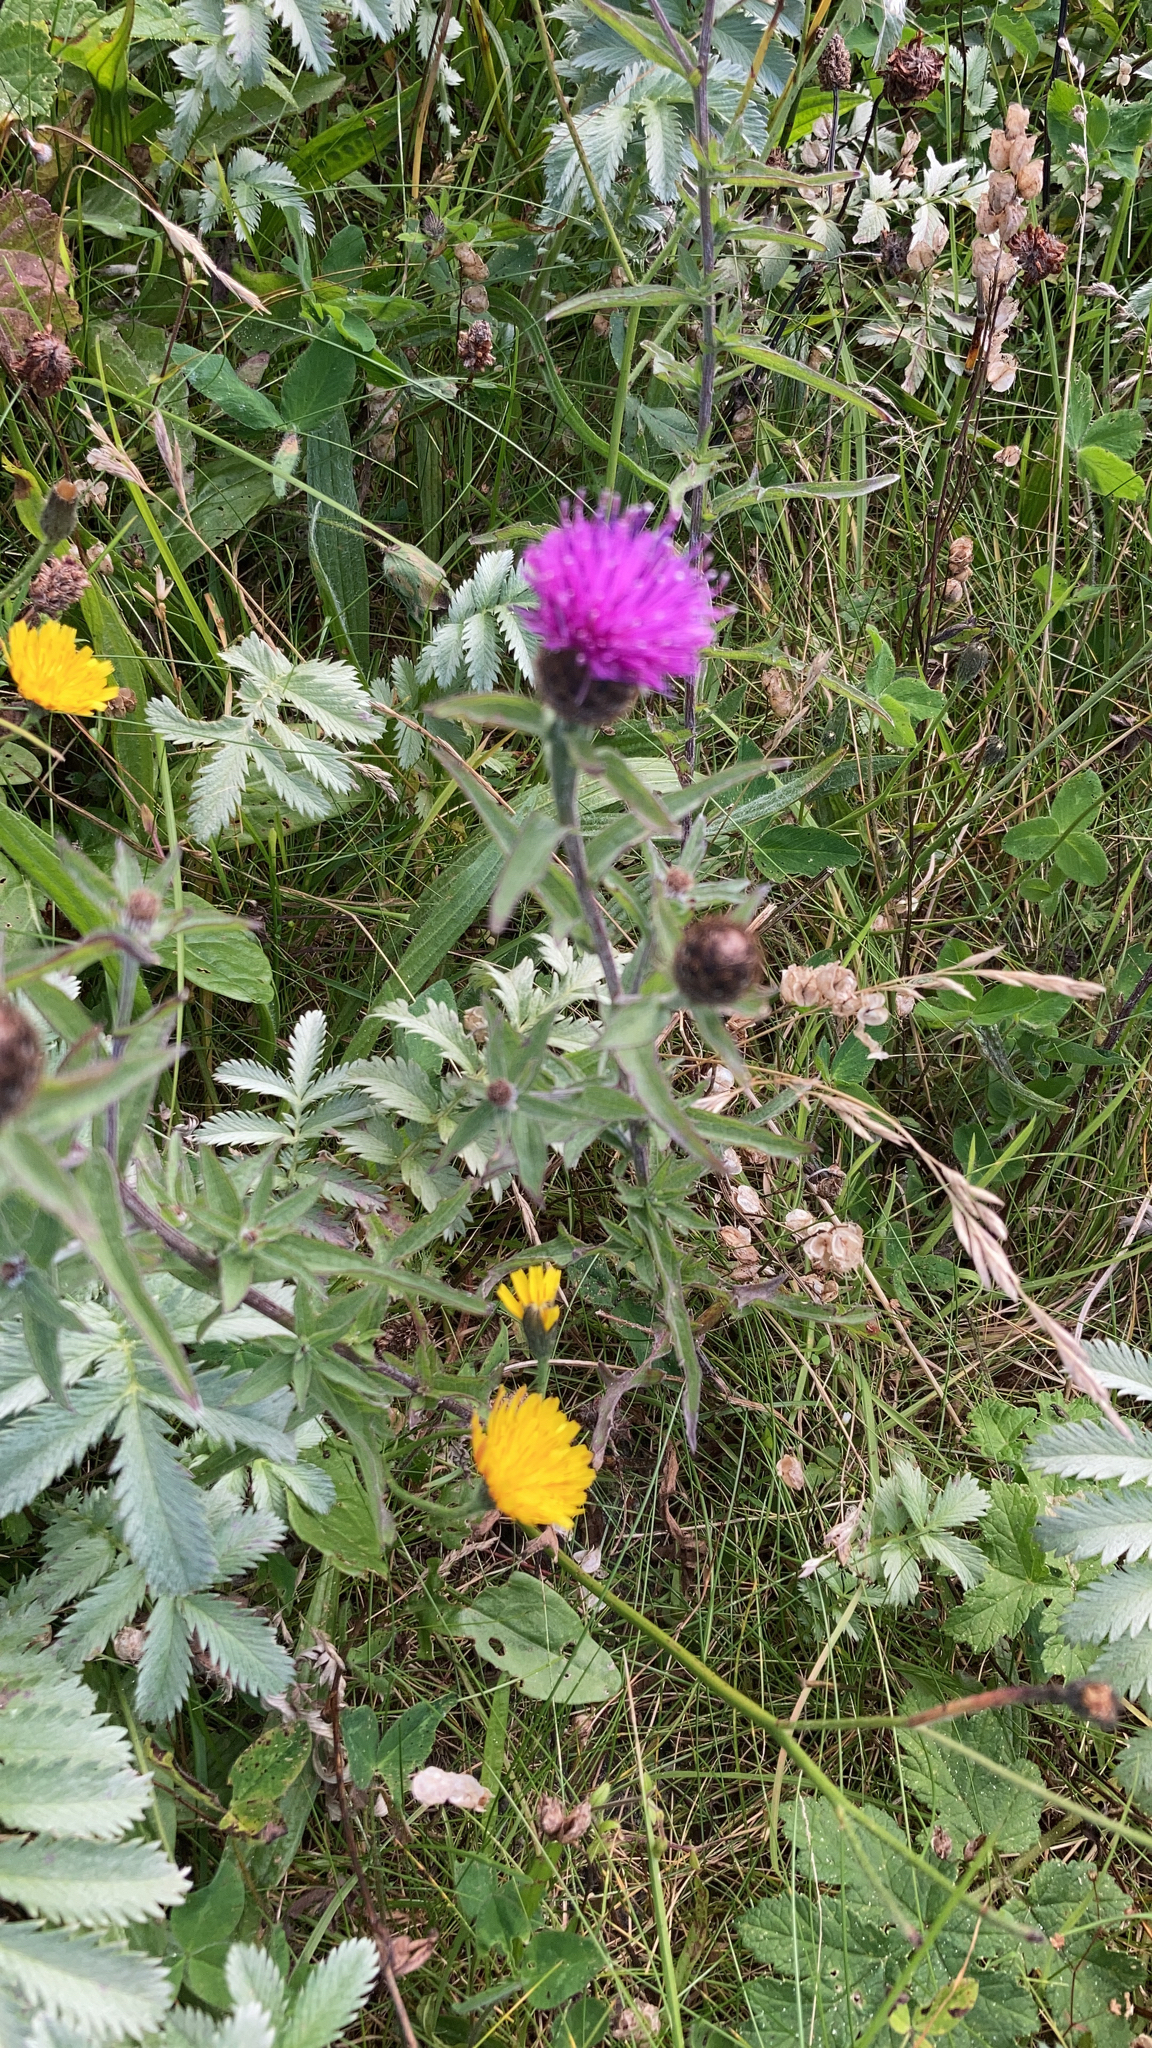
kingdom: Plantae
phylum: Tracheophyta
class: Magnoliopsida
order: Asterales
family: Asteraceae
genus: Centaurea
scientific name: Centaurea nigra
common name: Lesser knapweed
